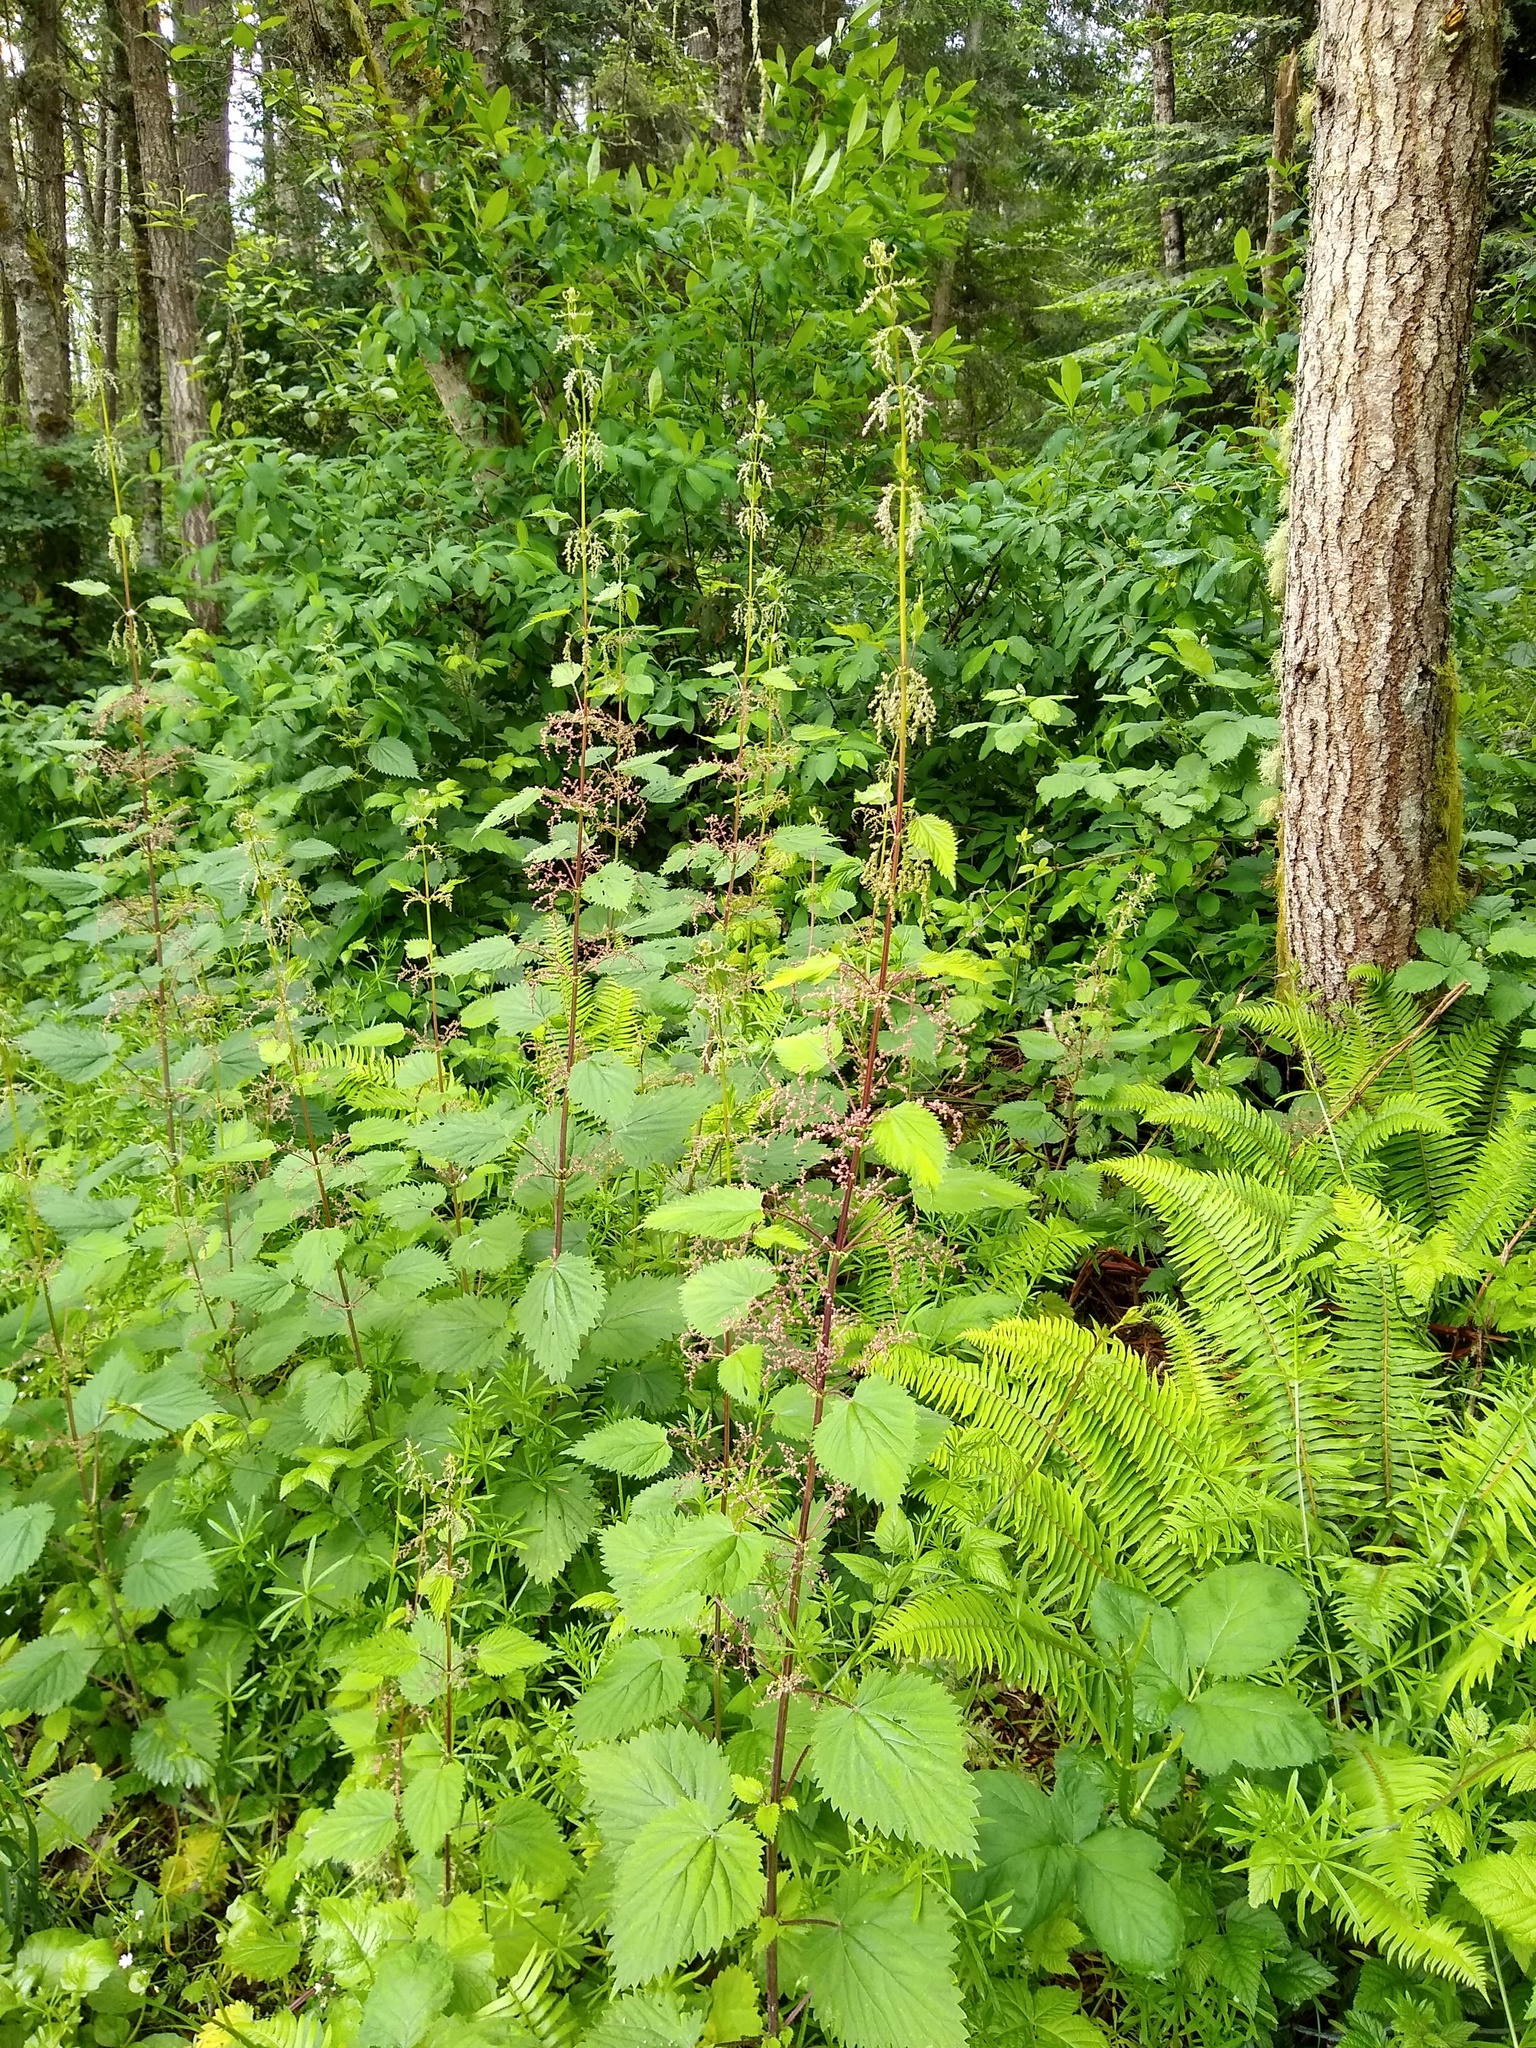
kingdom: Plantae
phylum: Tracheophyta
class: Magnoliopsida
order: Rosales
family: Urticaceae
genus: Urtica
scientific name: Urtica dioica
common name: Common nettle
